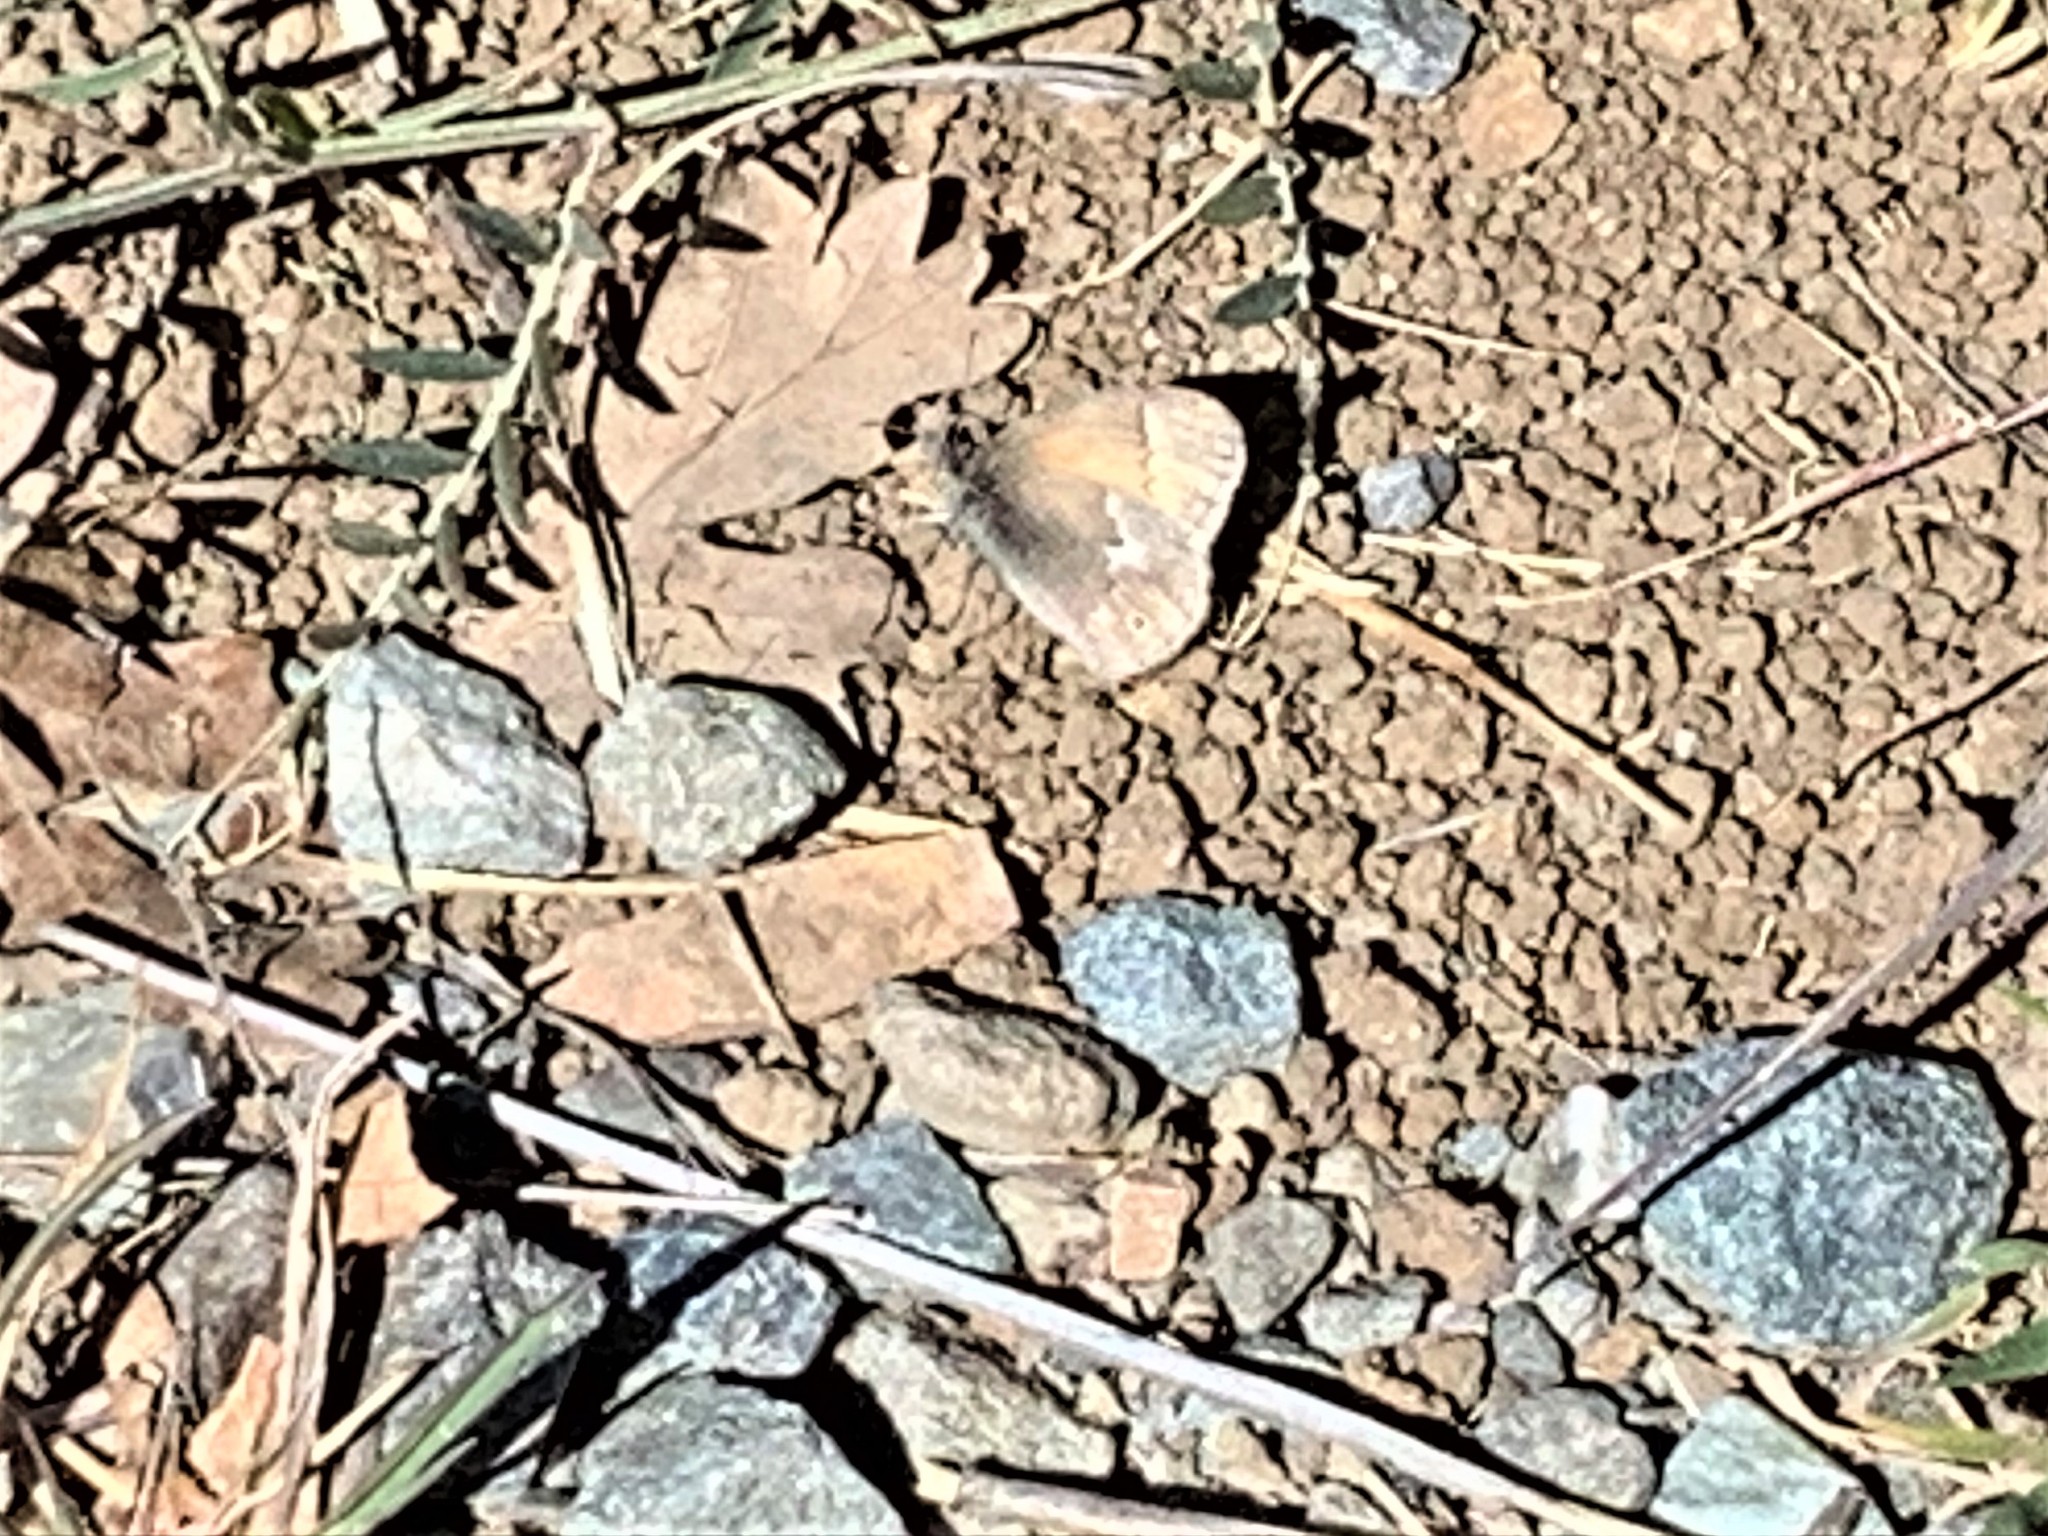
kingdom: Animalia
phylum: Arthropoda
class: Insecta
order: Lepidoptera
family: Nymphalidae
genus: Coenonympha
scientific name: Coenonympha california
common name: Common ringlet
